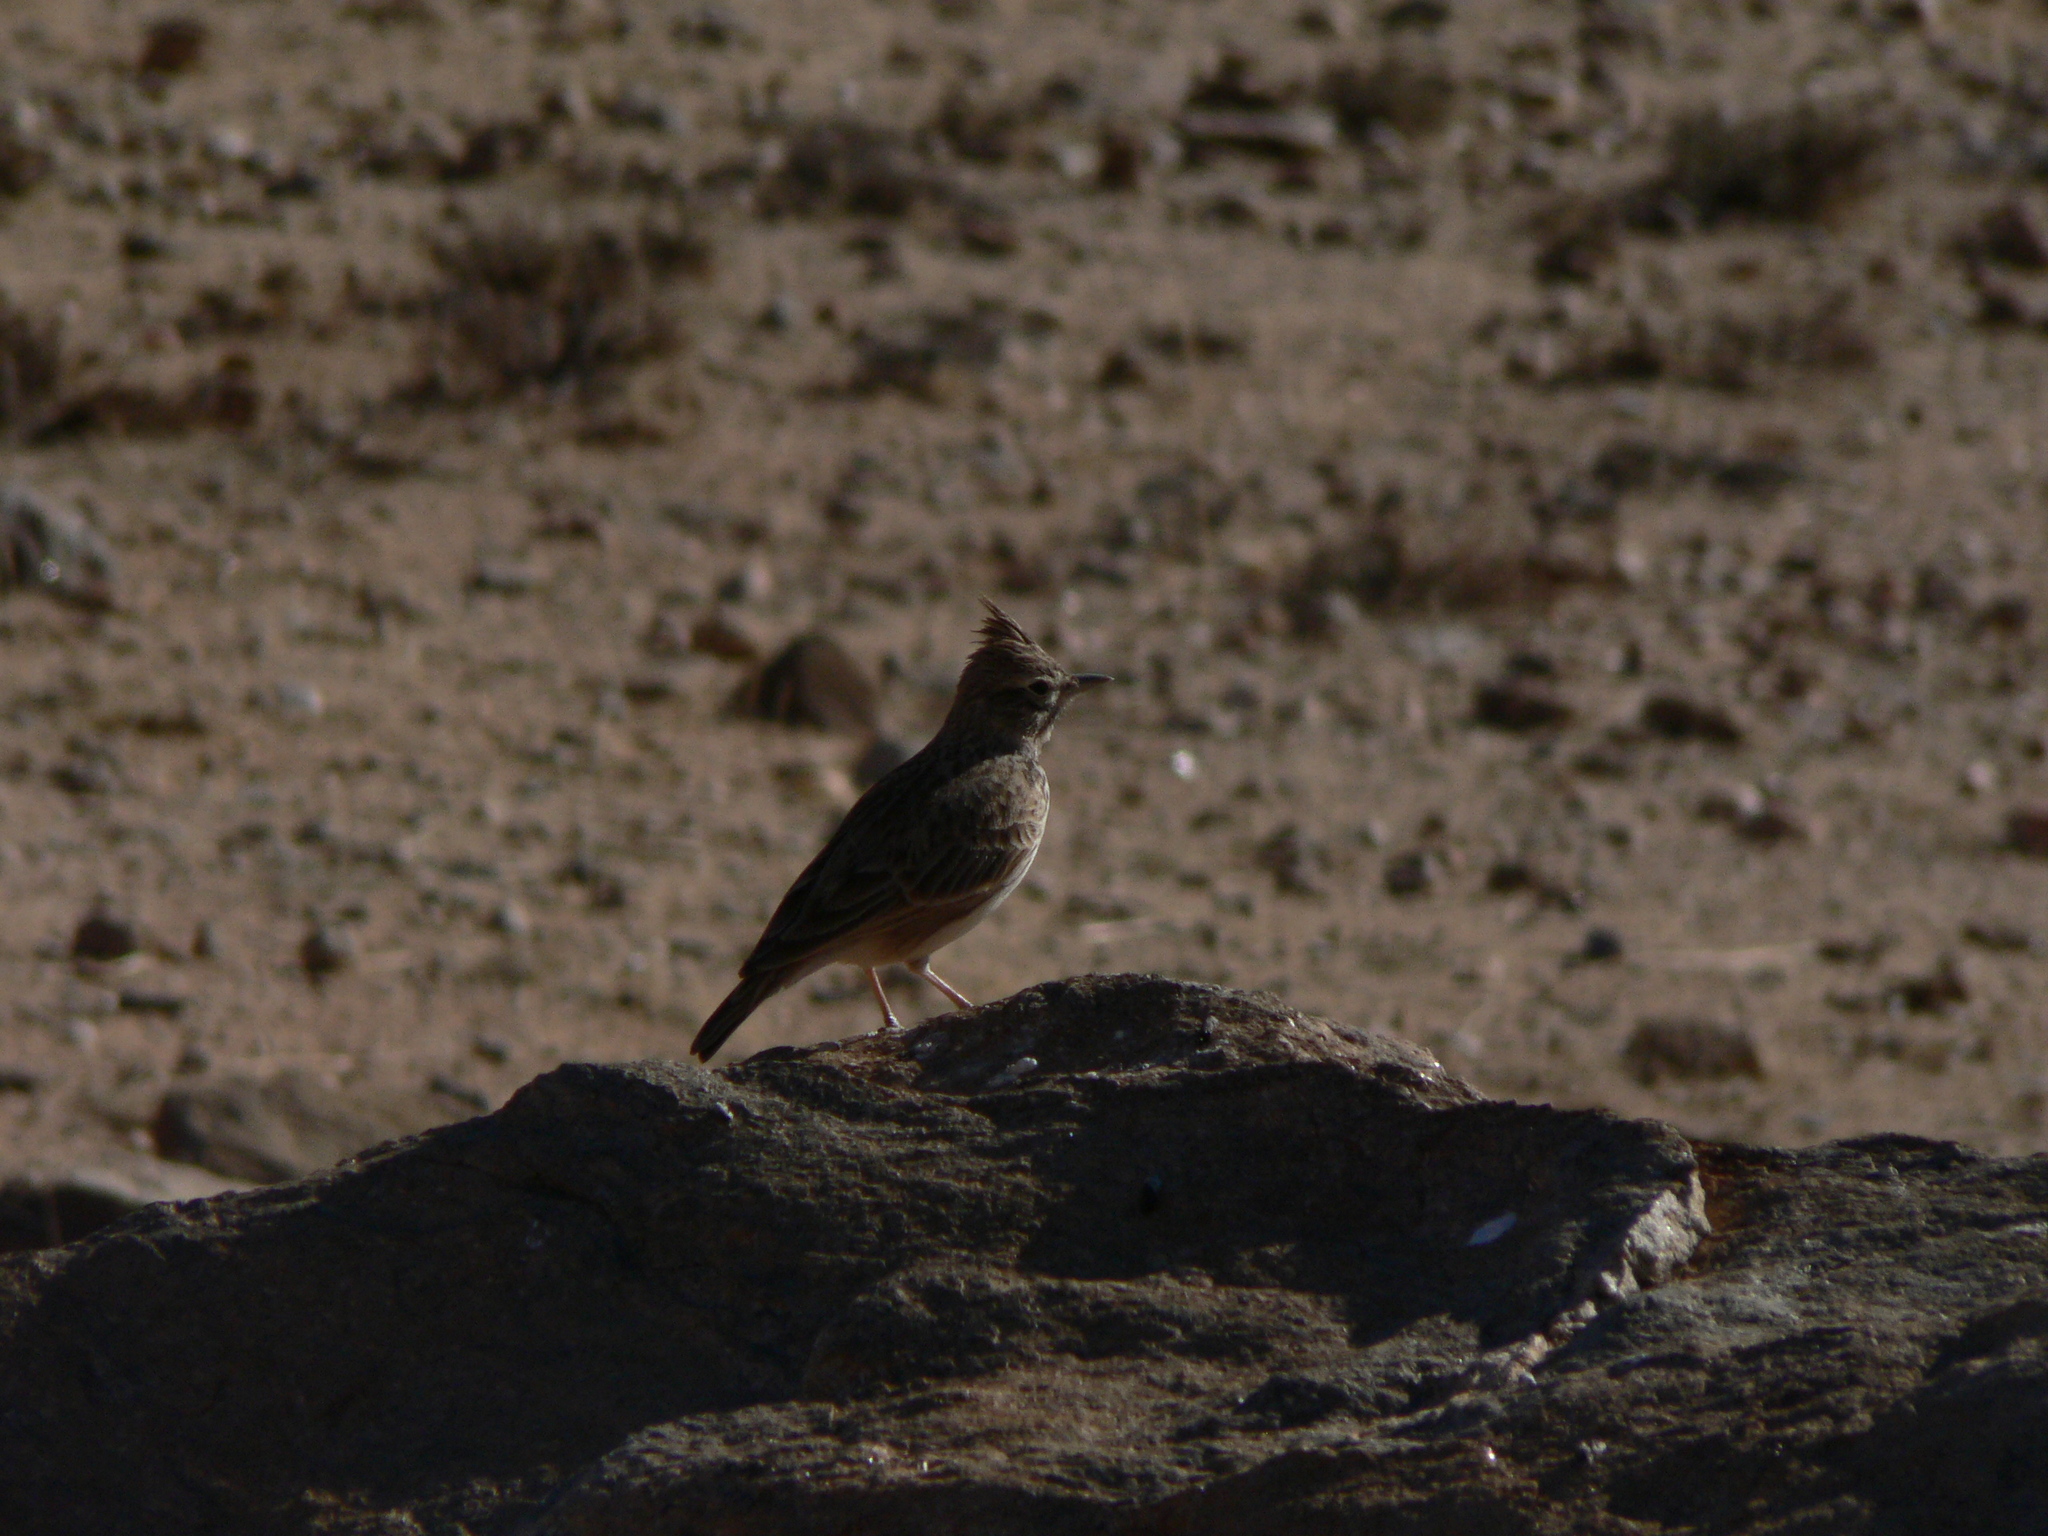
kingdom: Animalia
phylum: Chordata
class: Aves
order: Passeriformes
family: Alaudidae
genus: Galerida
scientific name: Galerida theklae
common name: Thekla lark
